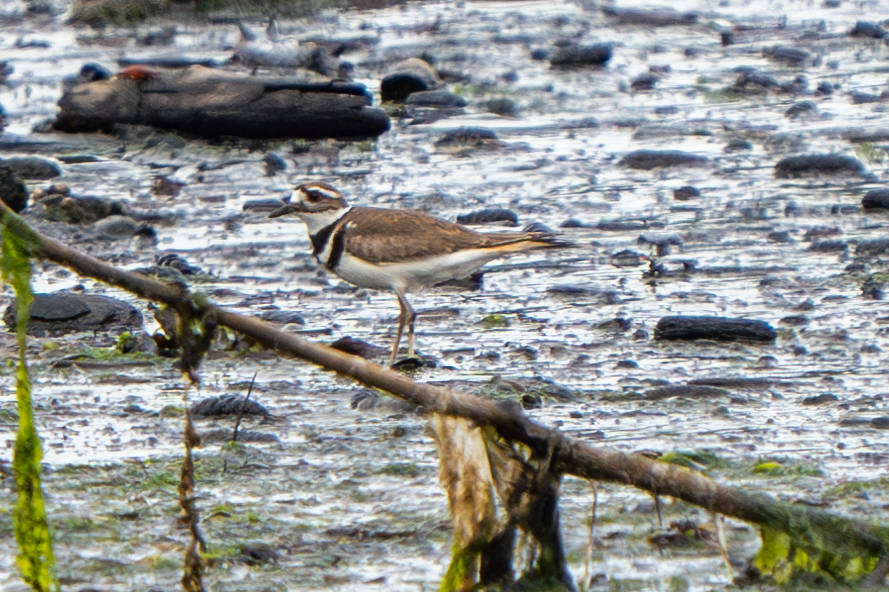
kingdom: Animalia
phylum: Chordata
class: Aves
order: Charadriiformes
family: Charadriidae
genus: Charadrius
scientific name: Charadrius vociferus
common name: Killdeer
